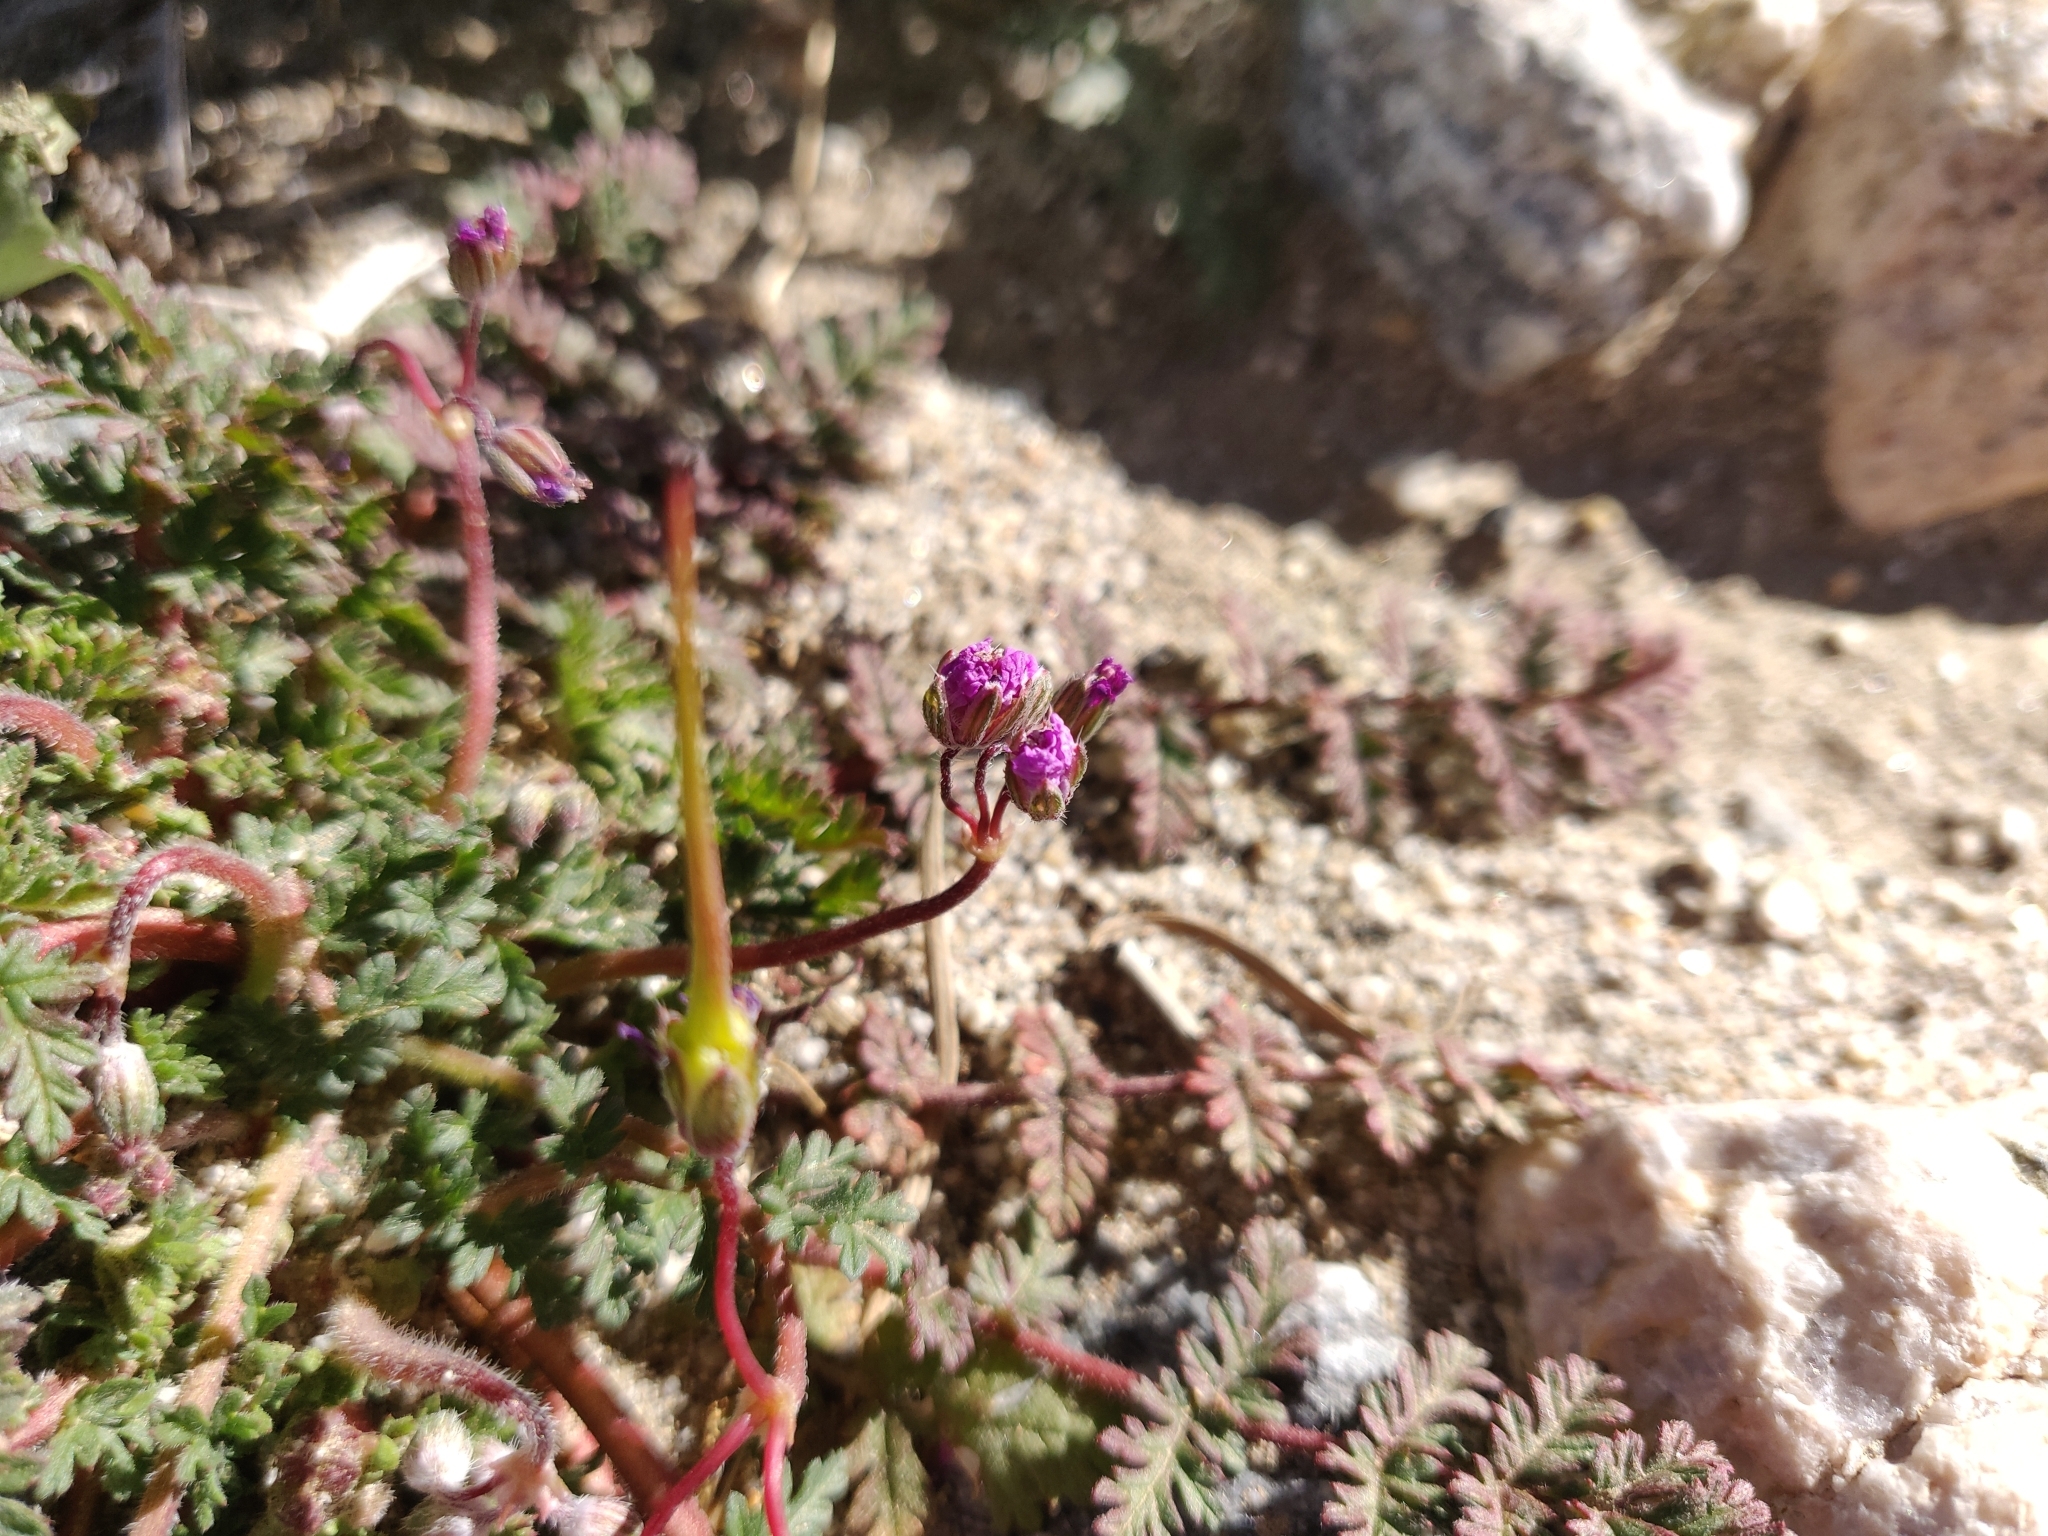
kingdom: Plantae
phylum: Tracheophyta
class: Magnoliopsida
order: Geraniales
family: Geraniaceae
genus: Erodium
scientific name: Erodium cicutarium
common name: Common stork's-bill
